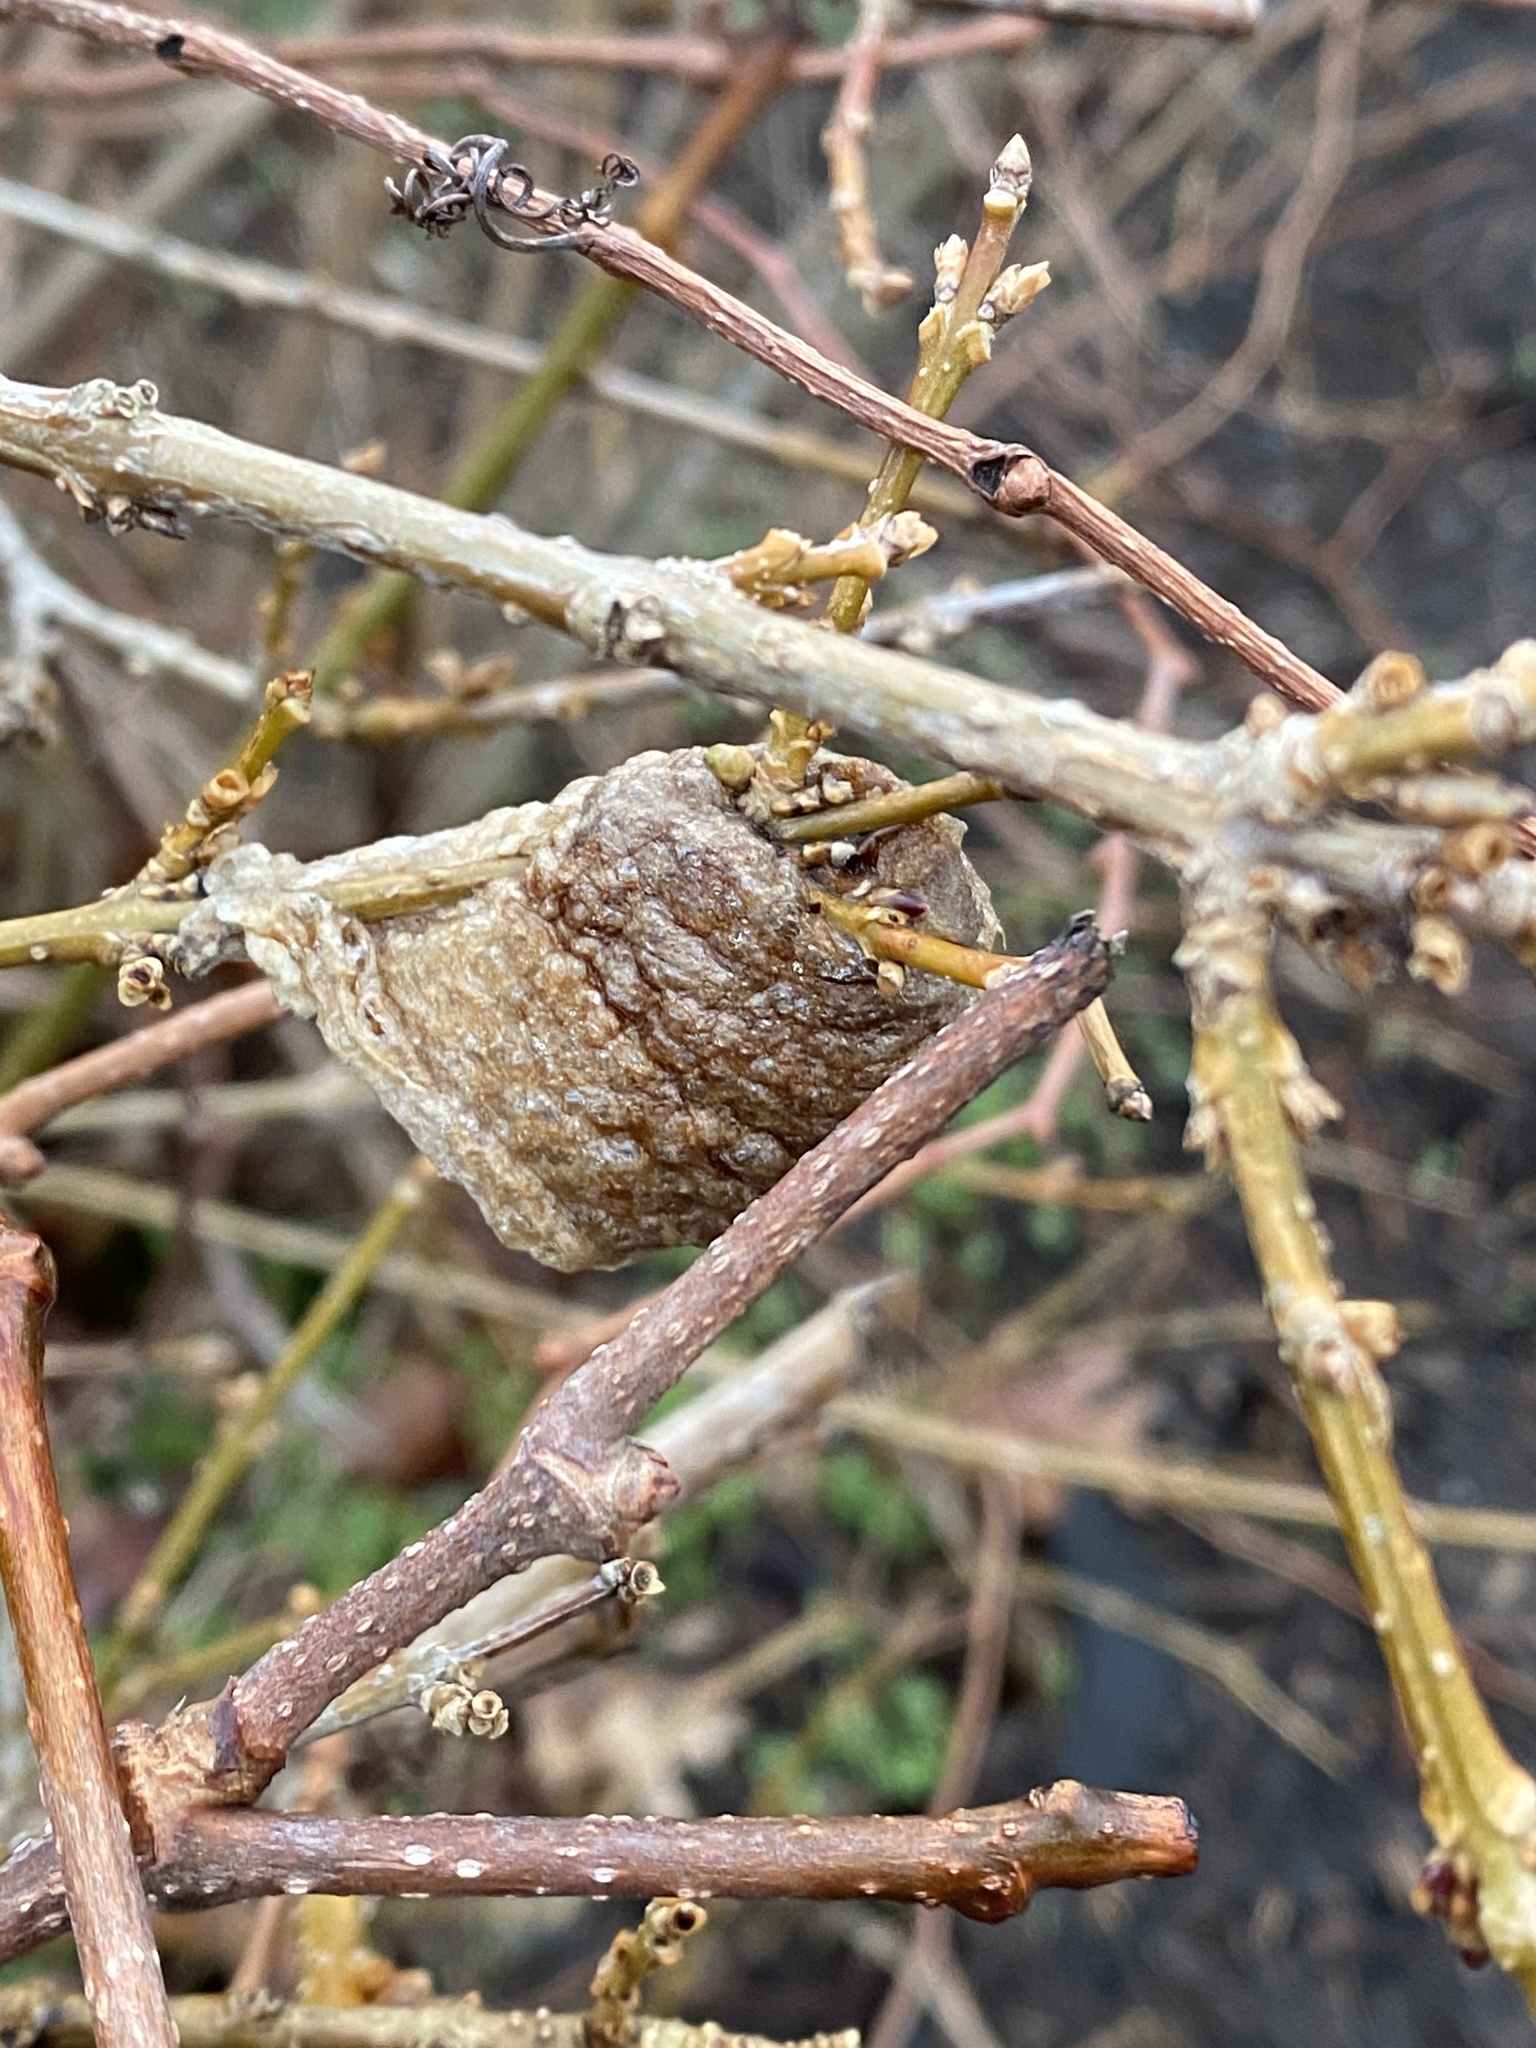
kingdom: Animalia
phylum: Arthropoda
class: Insecta
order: Mantodea
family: Mantidae
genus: Tenodera
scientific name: Tenodera sinensis
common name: Chinese mantis
